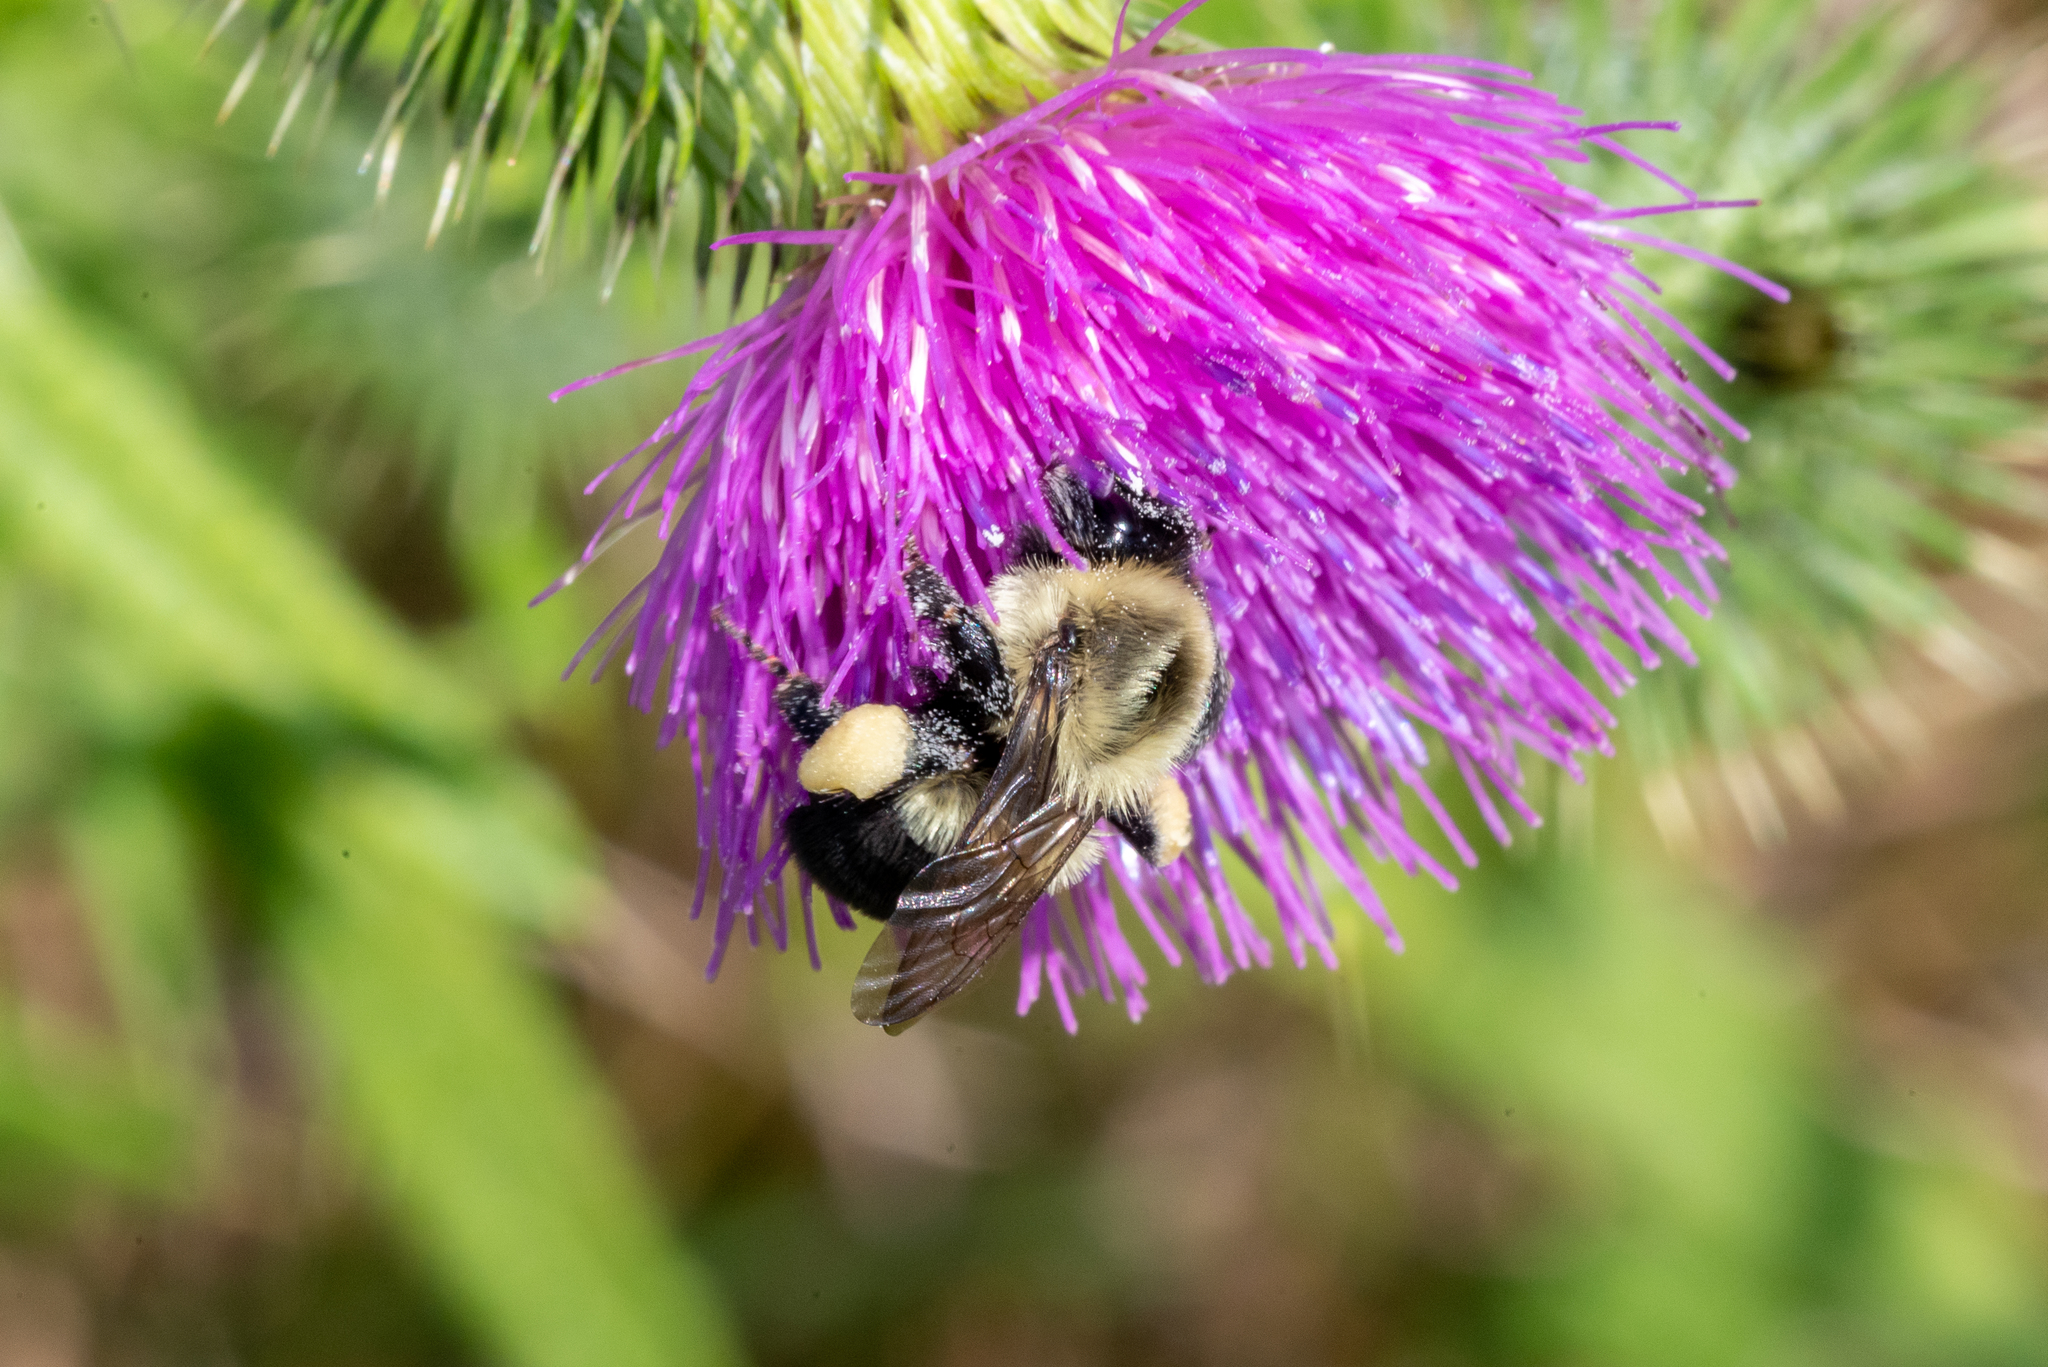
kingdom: Animalia
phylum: Arthropoda
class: Insecta
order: Hymenoptera
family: Apidae
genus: Bombus
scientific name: Bombus impatiens
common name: Common eastern bumble bee
